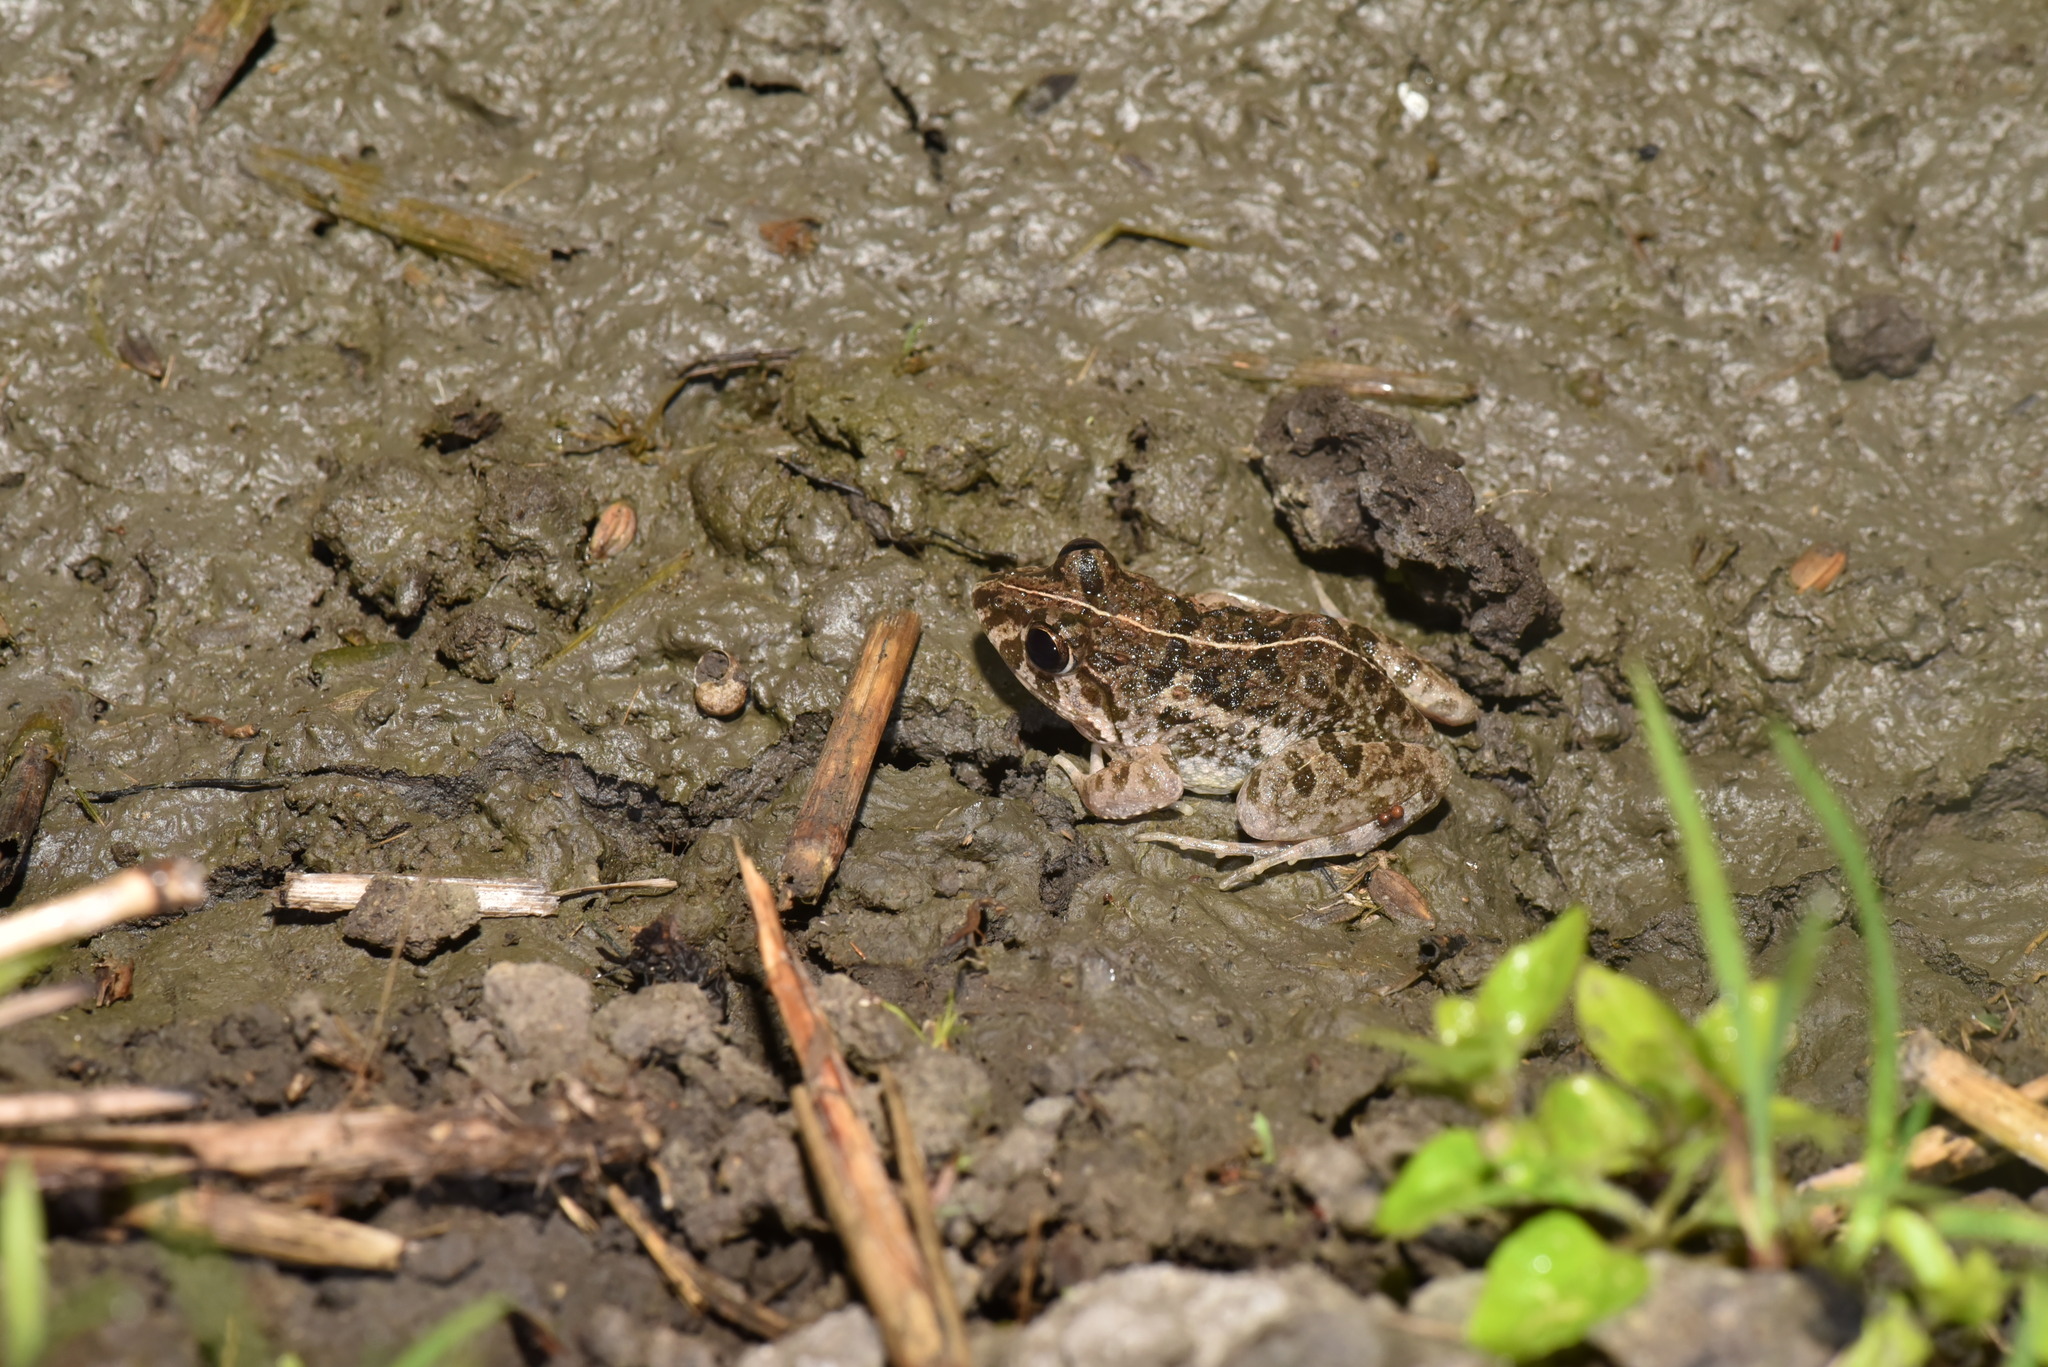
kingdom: Animalia
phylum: Chordata
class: Amphibia
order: Anura
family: Dicroglossidae
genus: Fejervarya
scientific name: Fejervarya limnocharis
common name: Asian grass frog/common pond frog/field frog/grass frog/indian rice frog
